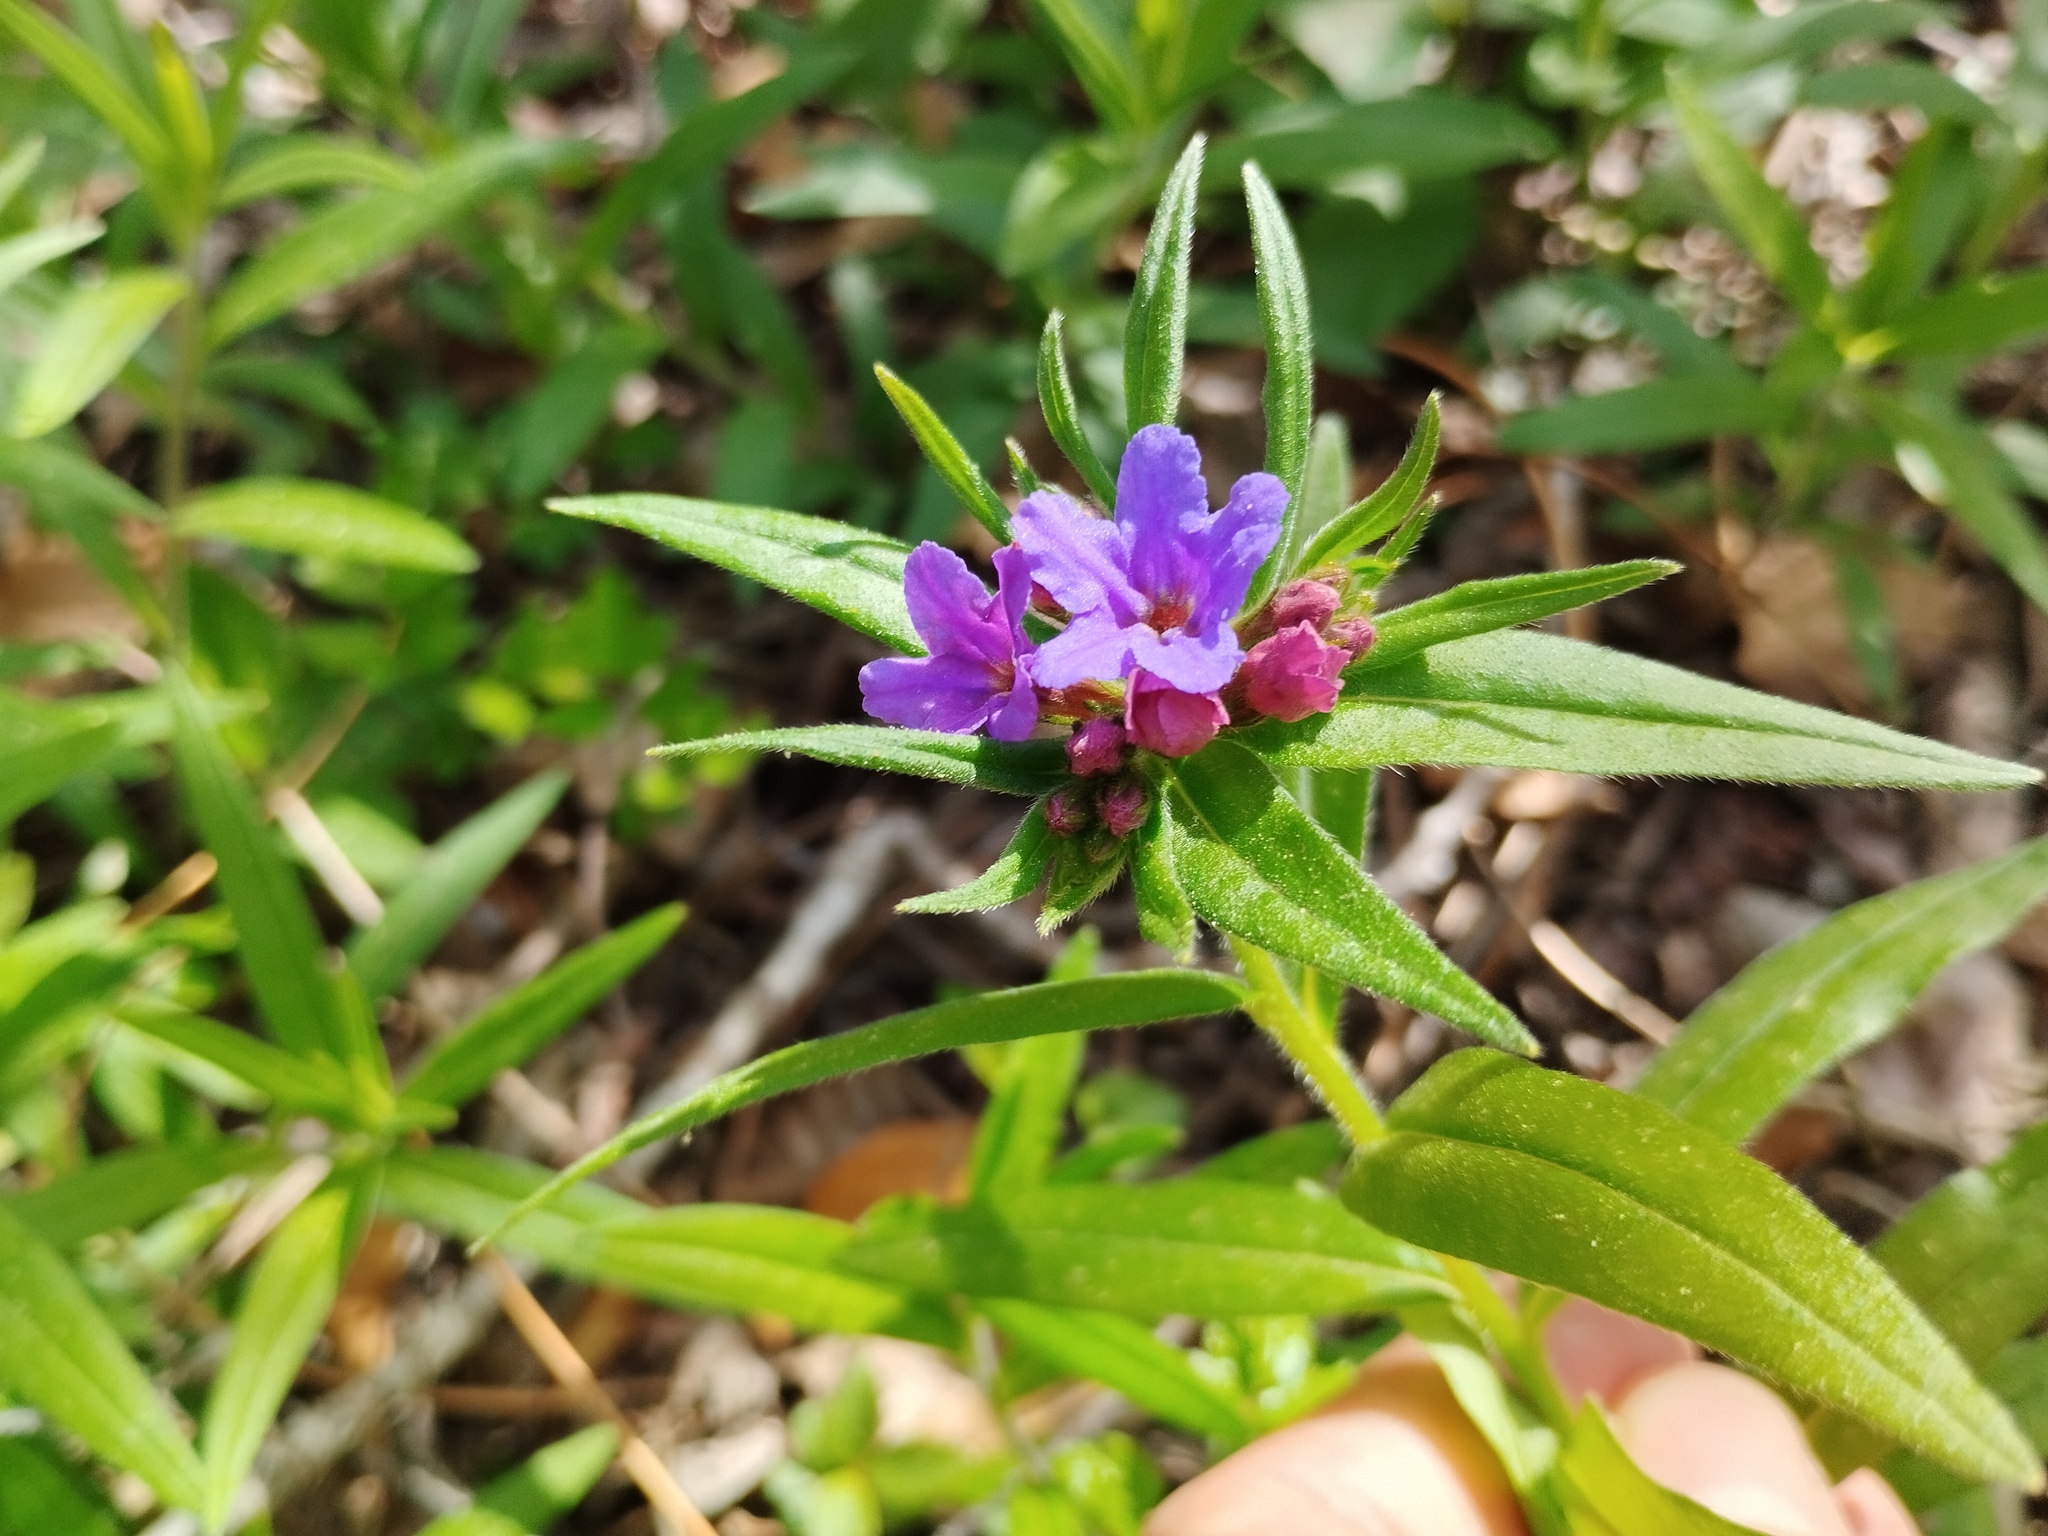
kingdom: Plantae
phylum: Tracheophyta
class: Magnoliopsida
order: Boraginales
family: Boraginaceae
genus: Aegonychon
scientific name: Aegonychon purpurocaeruleum
